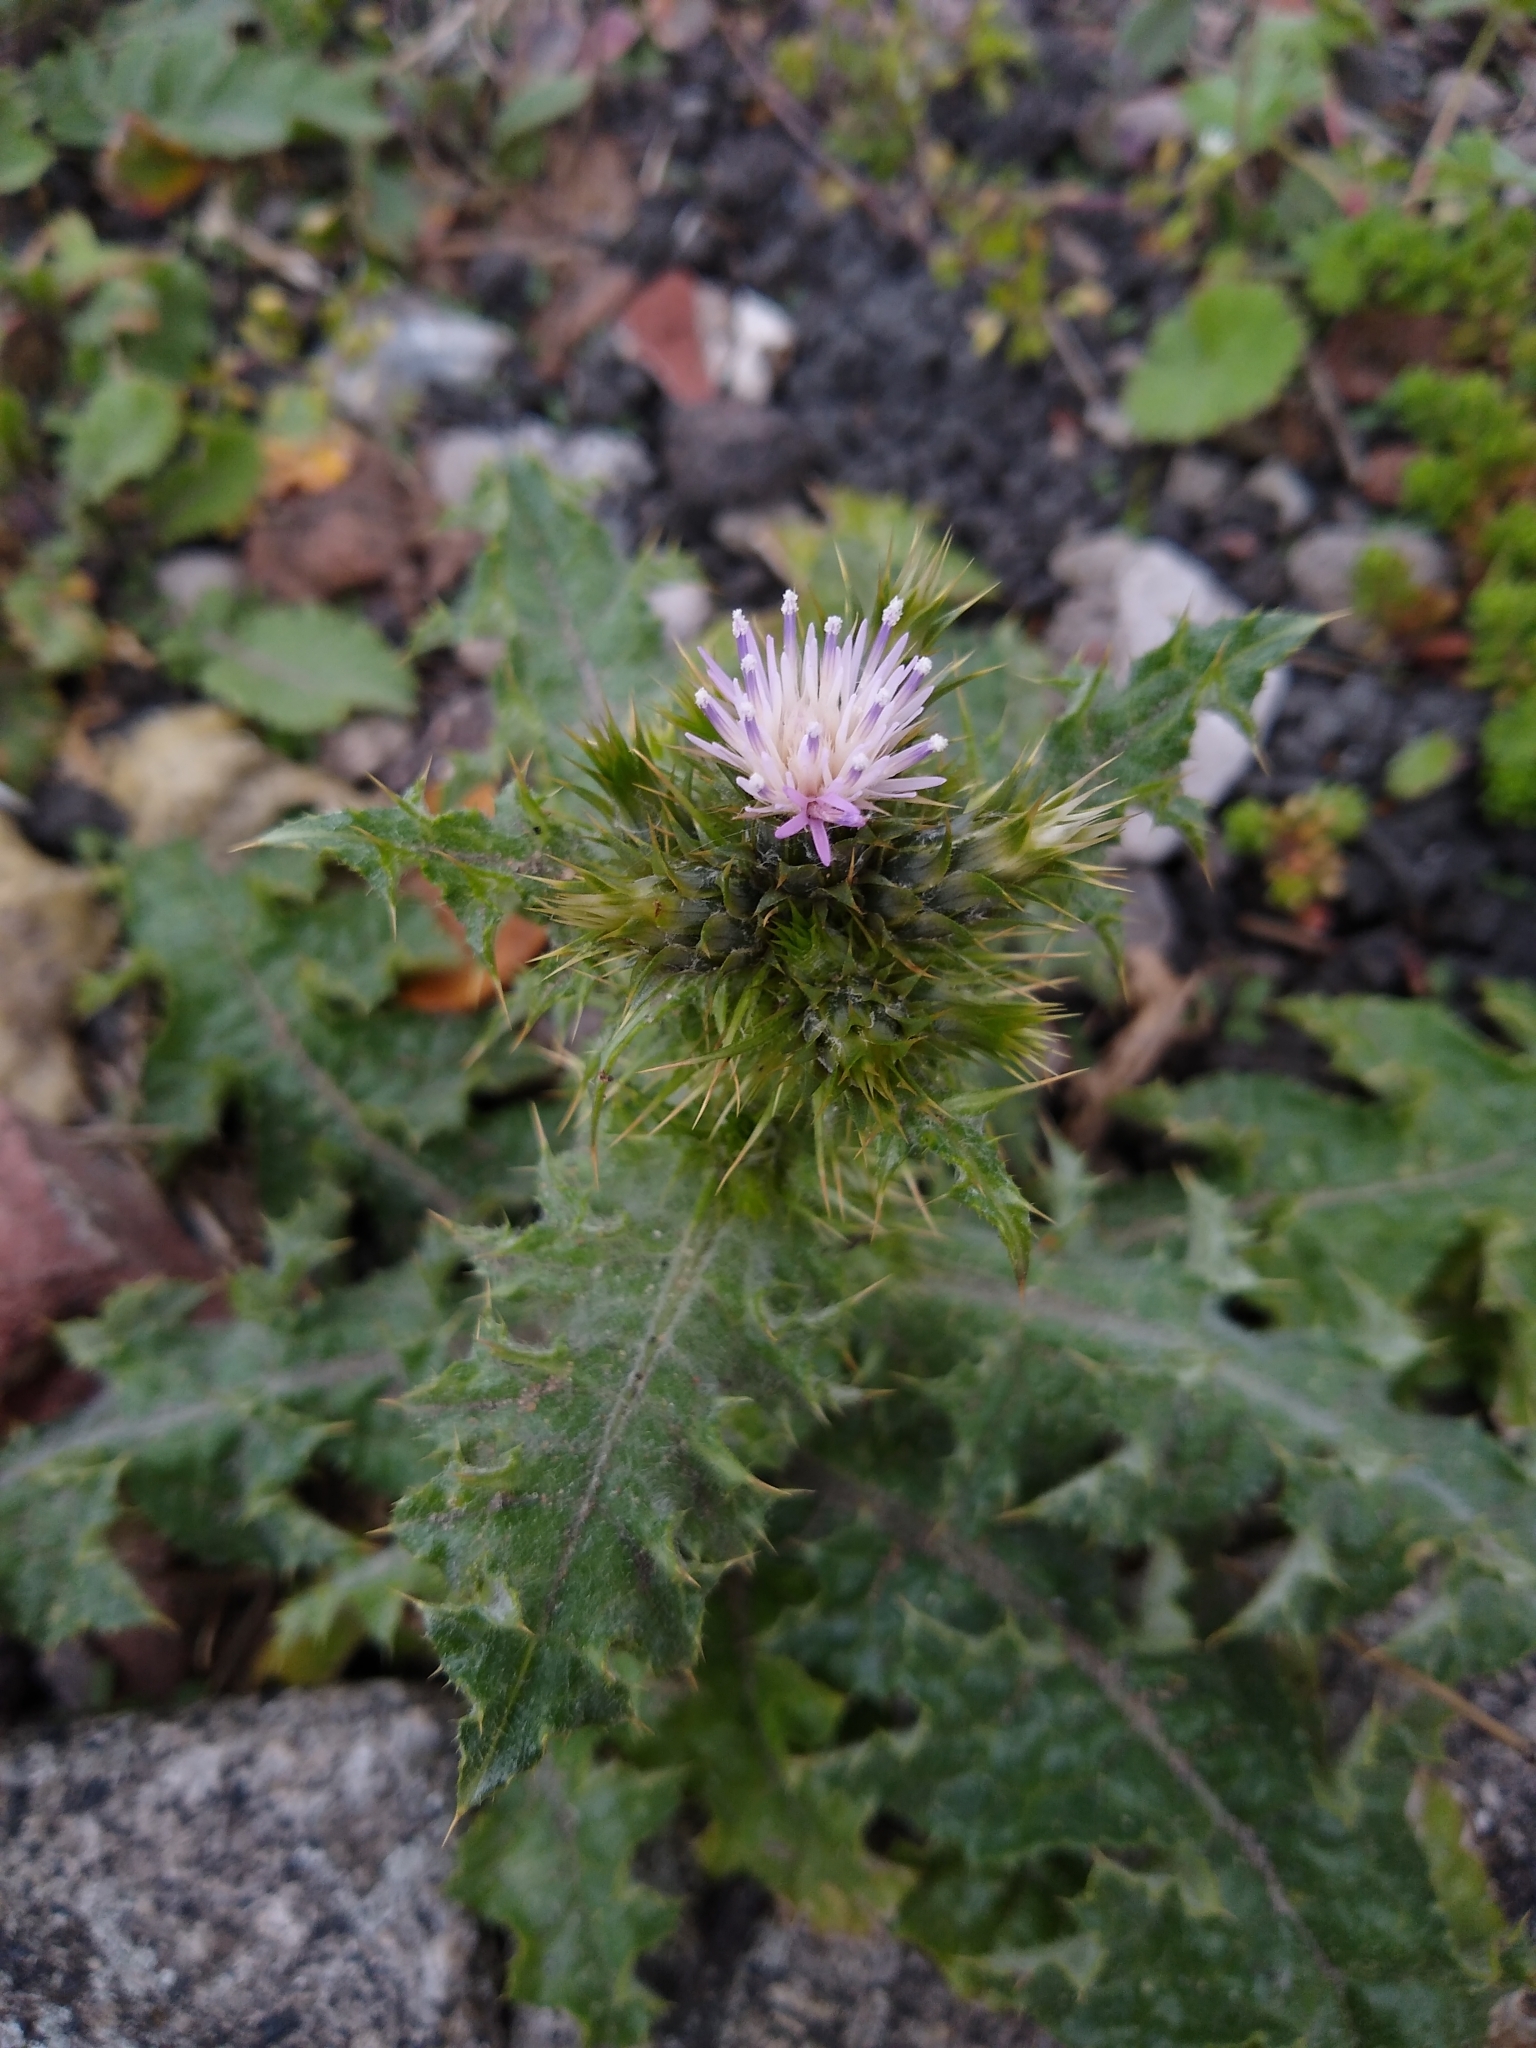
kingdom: Plantae
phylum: Tracheophyta
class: Magnoliopsida
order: Asterales
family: Asteraceae
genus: Carduus
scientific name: Carduus tenuiflorus
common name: Slender thistle
